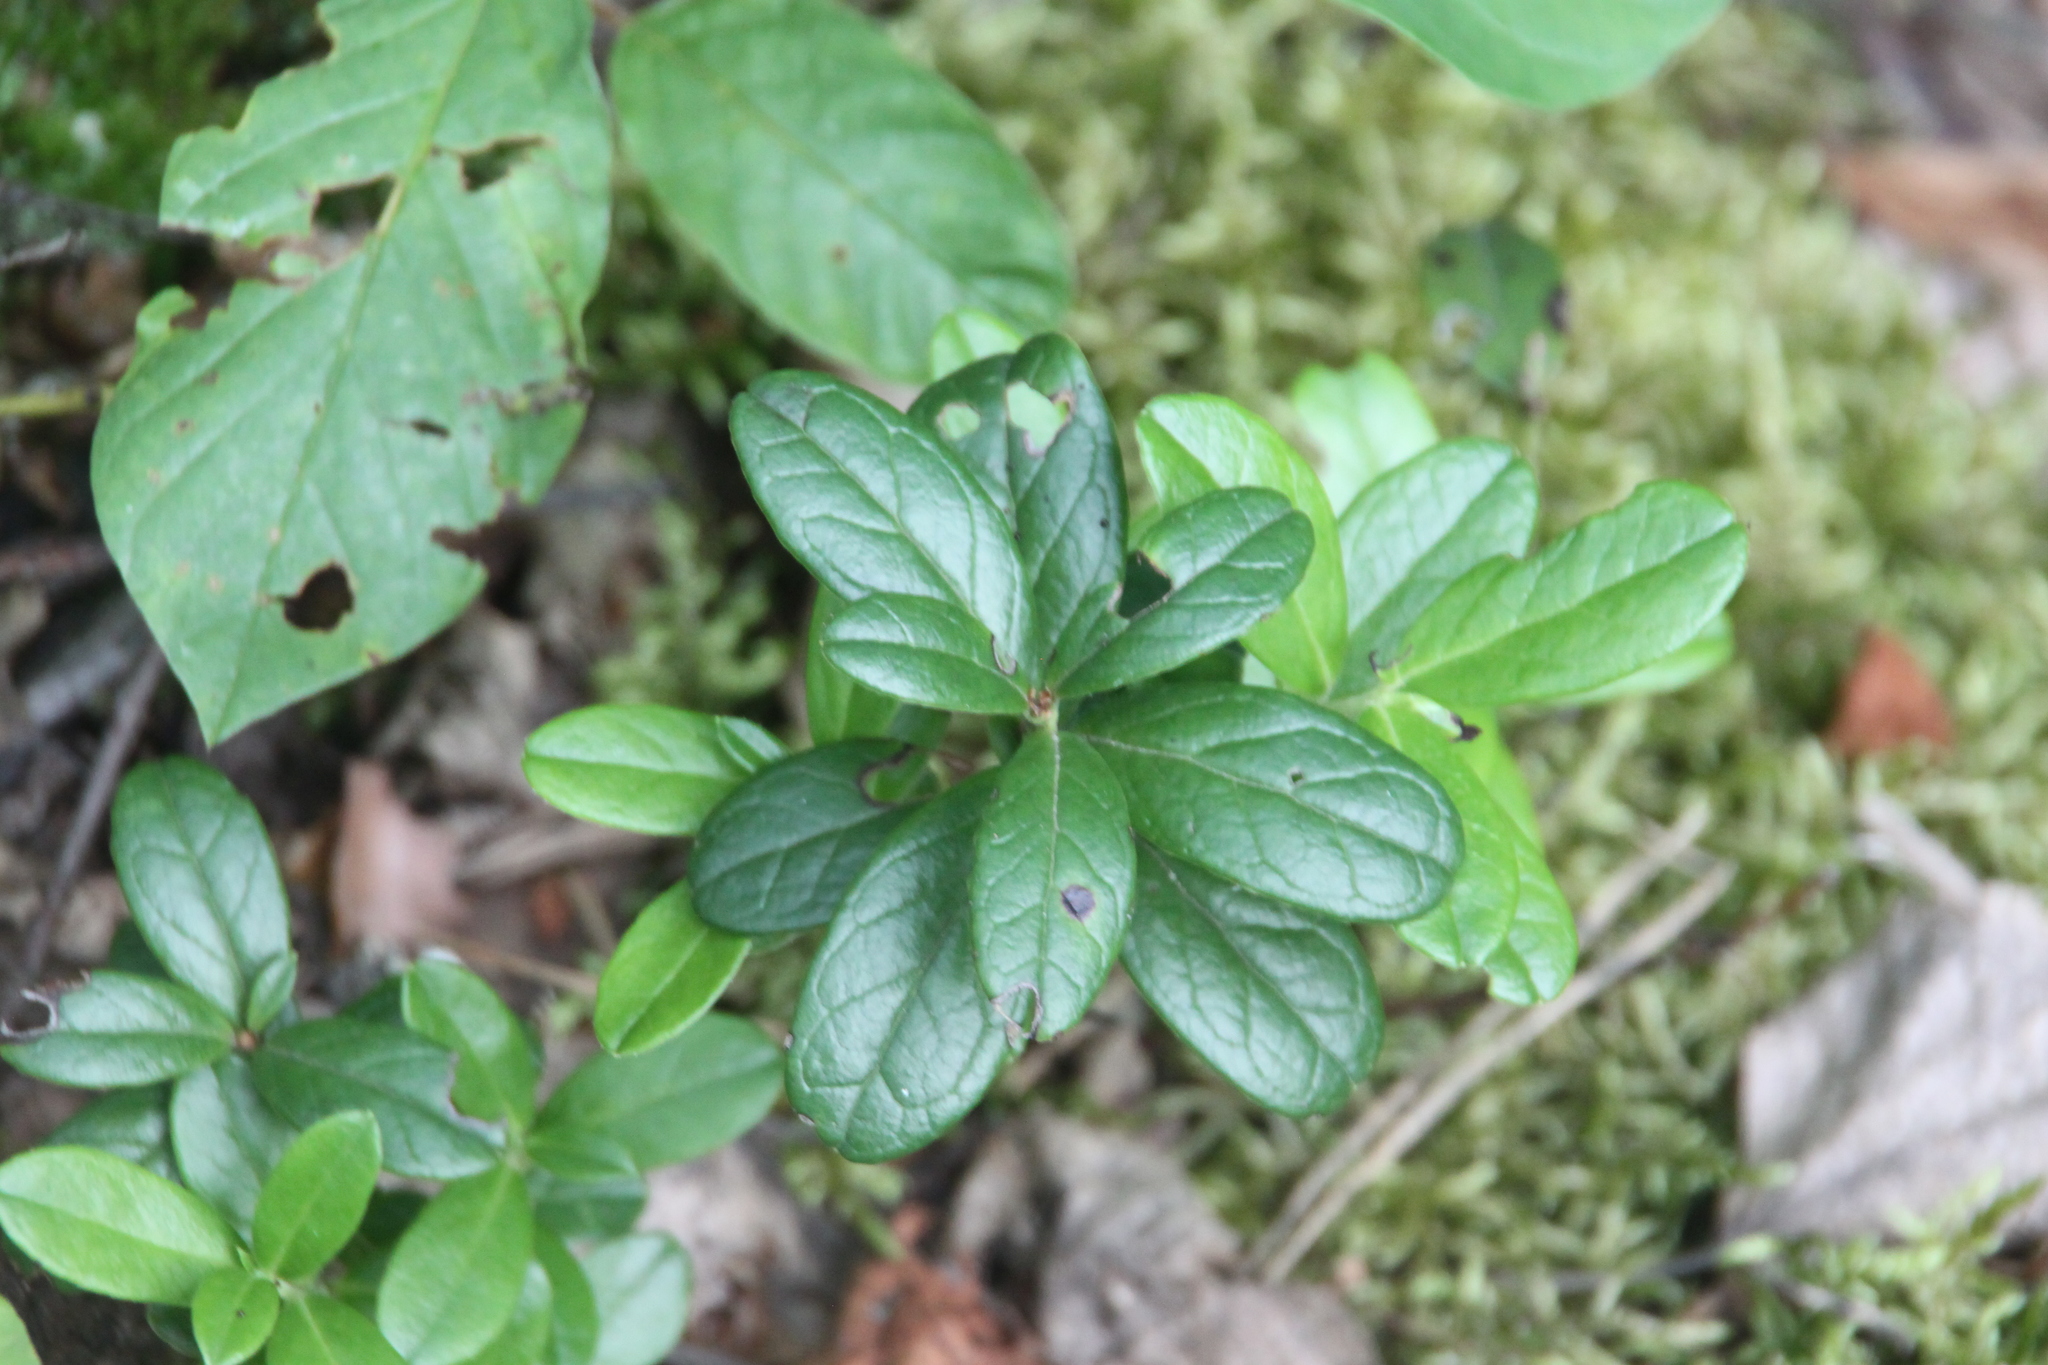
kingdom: Plantae
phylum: Tracheophyta
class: Magnoliopsida
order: Ericales
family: Ericaceae
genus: Vaccinium
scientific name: Vaccinium vitis-idaea
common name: Cowberry
